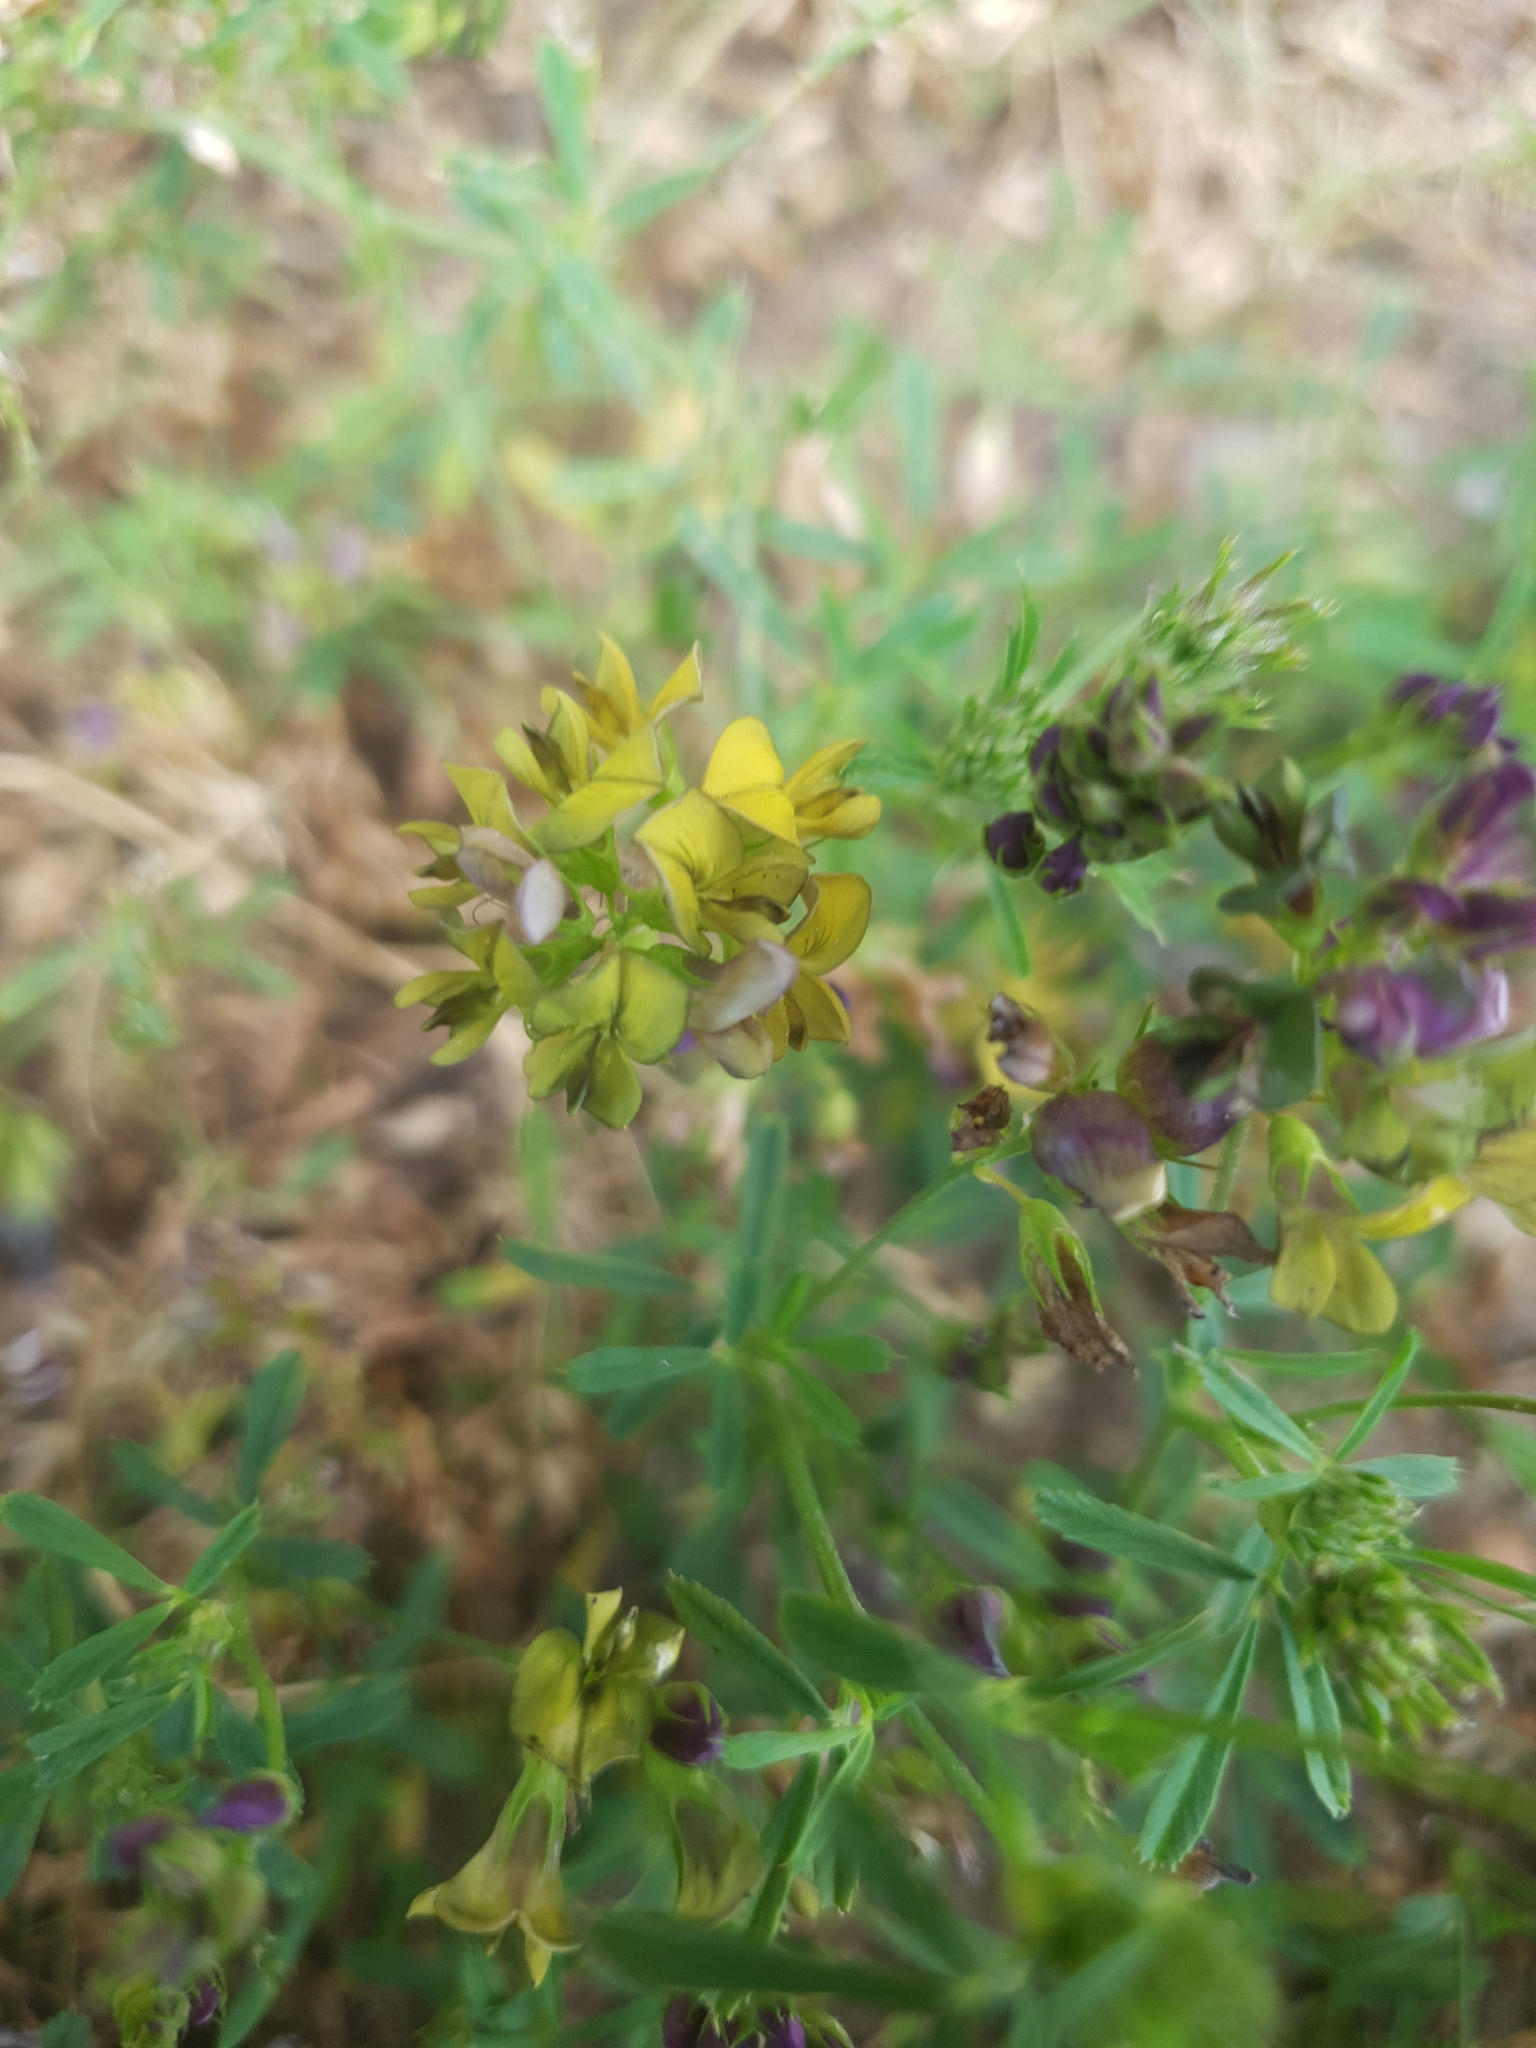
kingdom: Plantae
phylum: Tracheophyta
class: Magnoliopsida
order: Fabales
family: Fabaceae
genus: Medicago
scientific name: Medicago varia
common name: Sand lucerne
